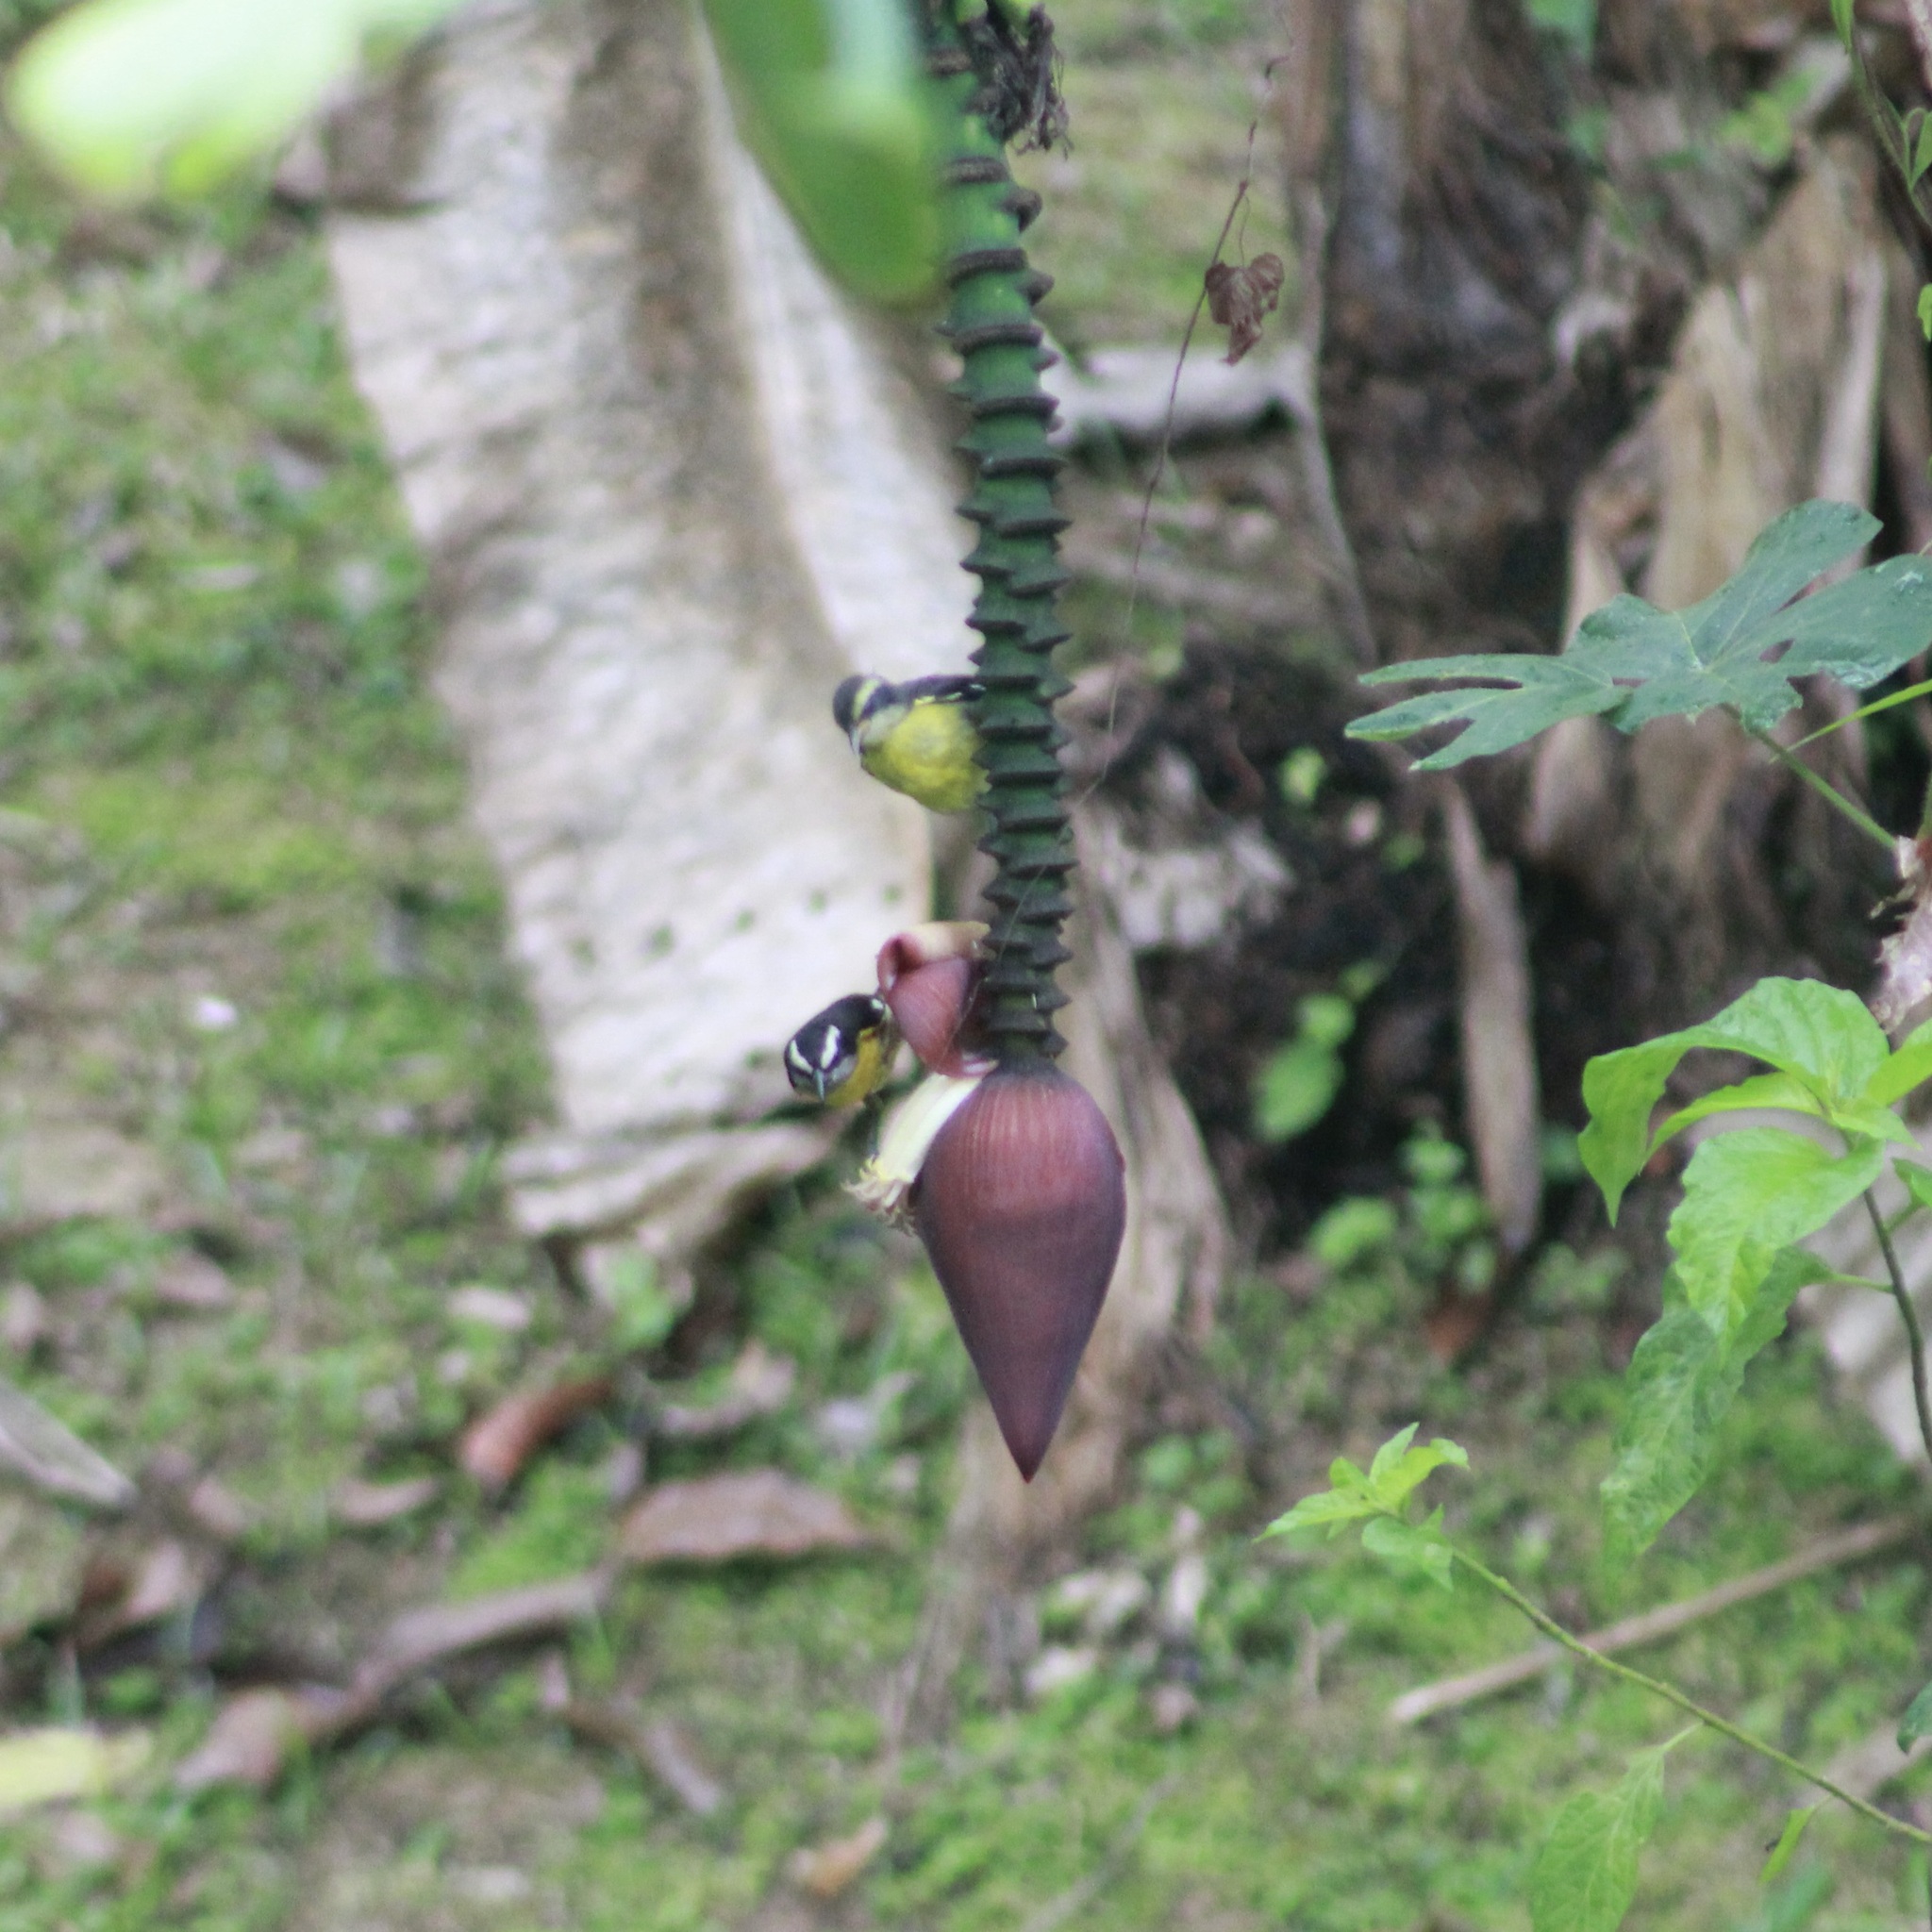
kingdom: Animalia
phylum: Chordata
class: Aves
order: Passeriformes
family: Thraupidae
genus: Coereba
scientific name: Coereba flaveola
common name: Bananaquit
